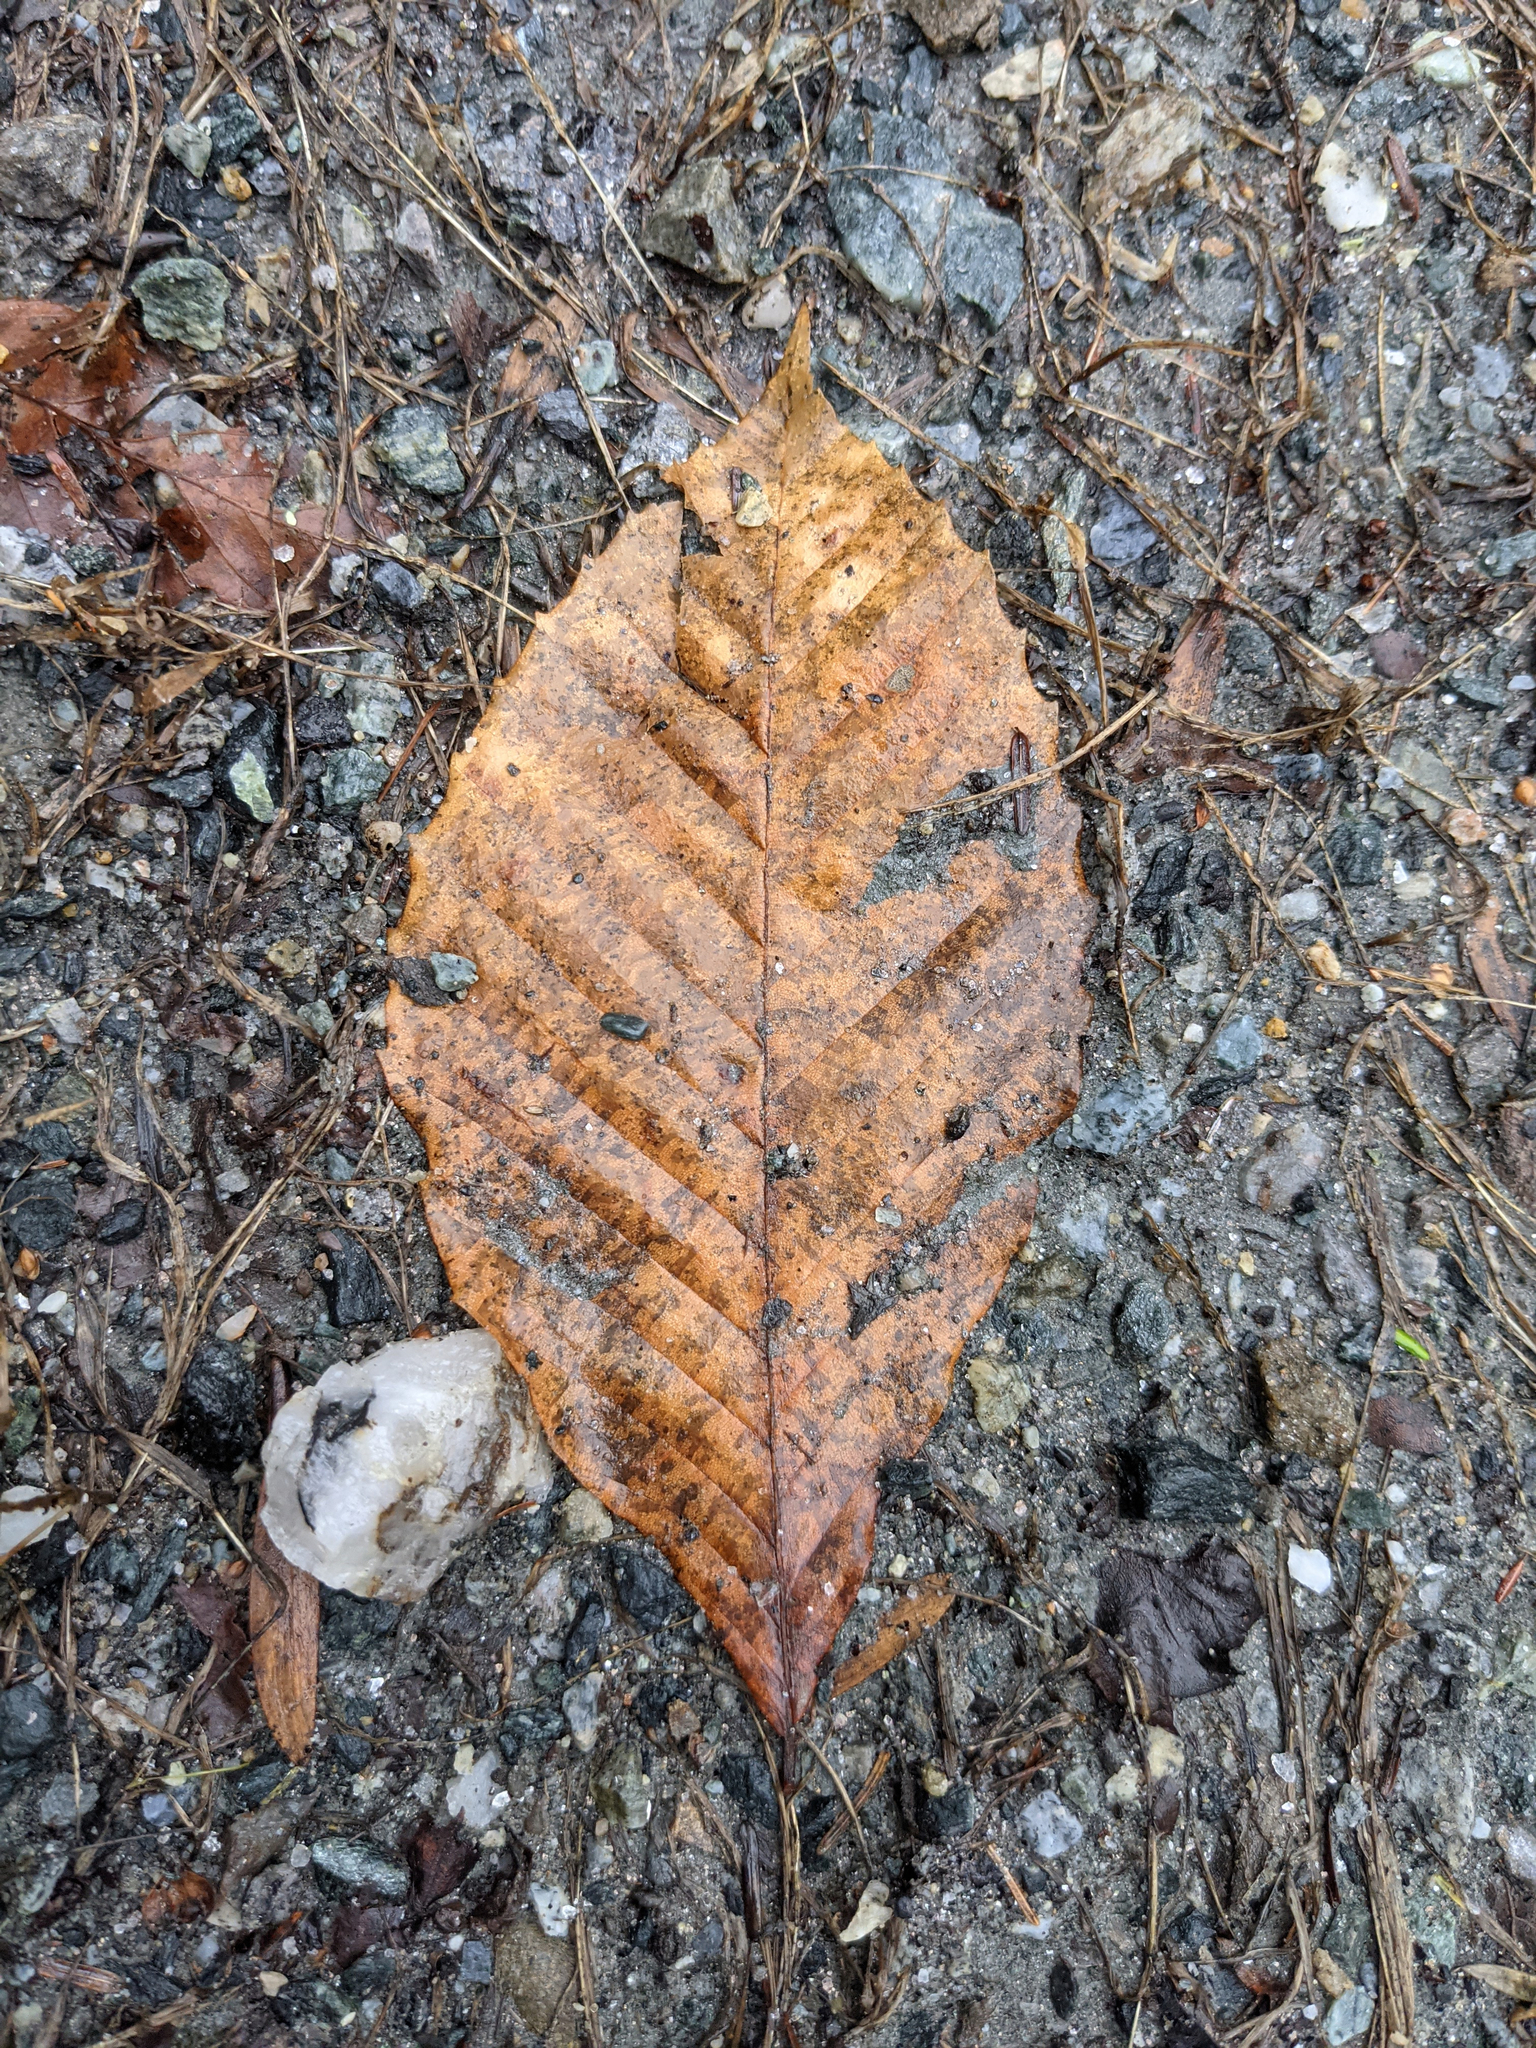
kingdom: Plantae
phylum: Tracheophyta
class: Magnoliopsida
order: Fagales
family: Fagaceae
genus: Fagus
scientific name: Fagus grandifolia
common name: American beech
